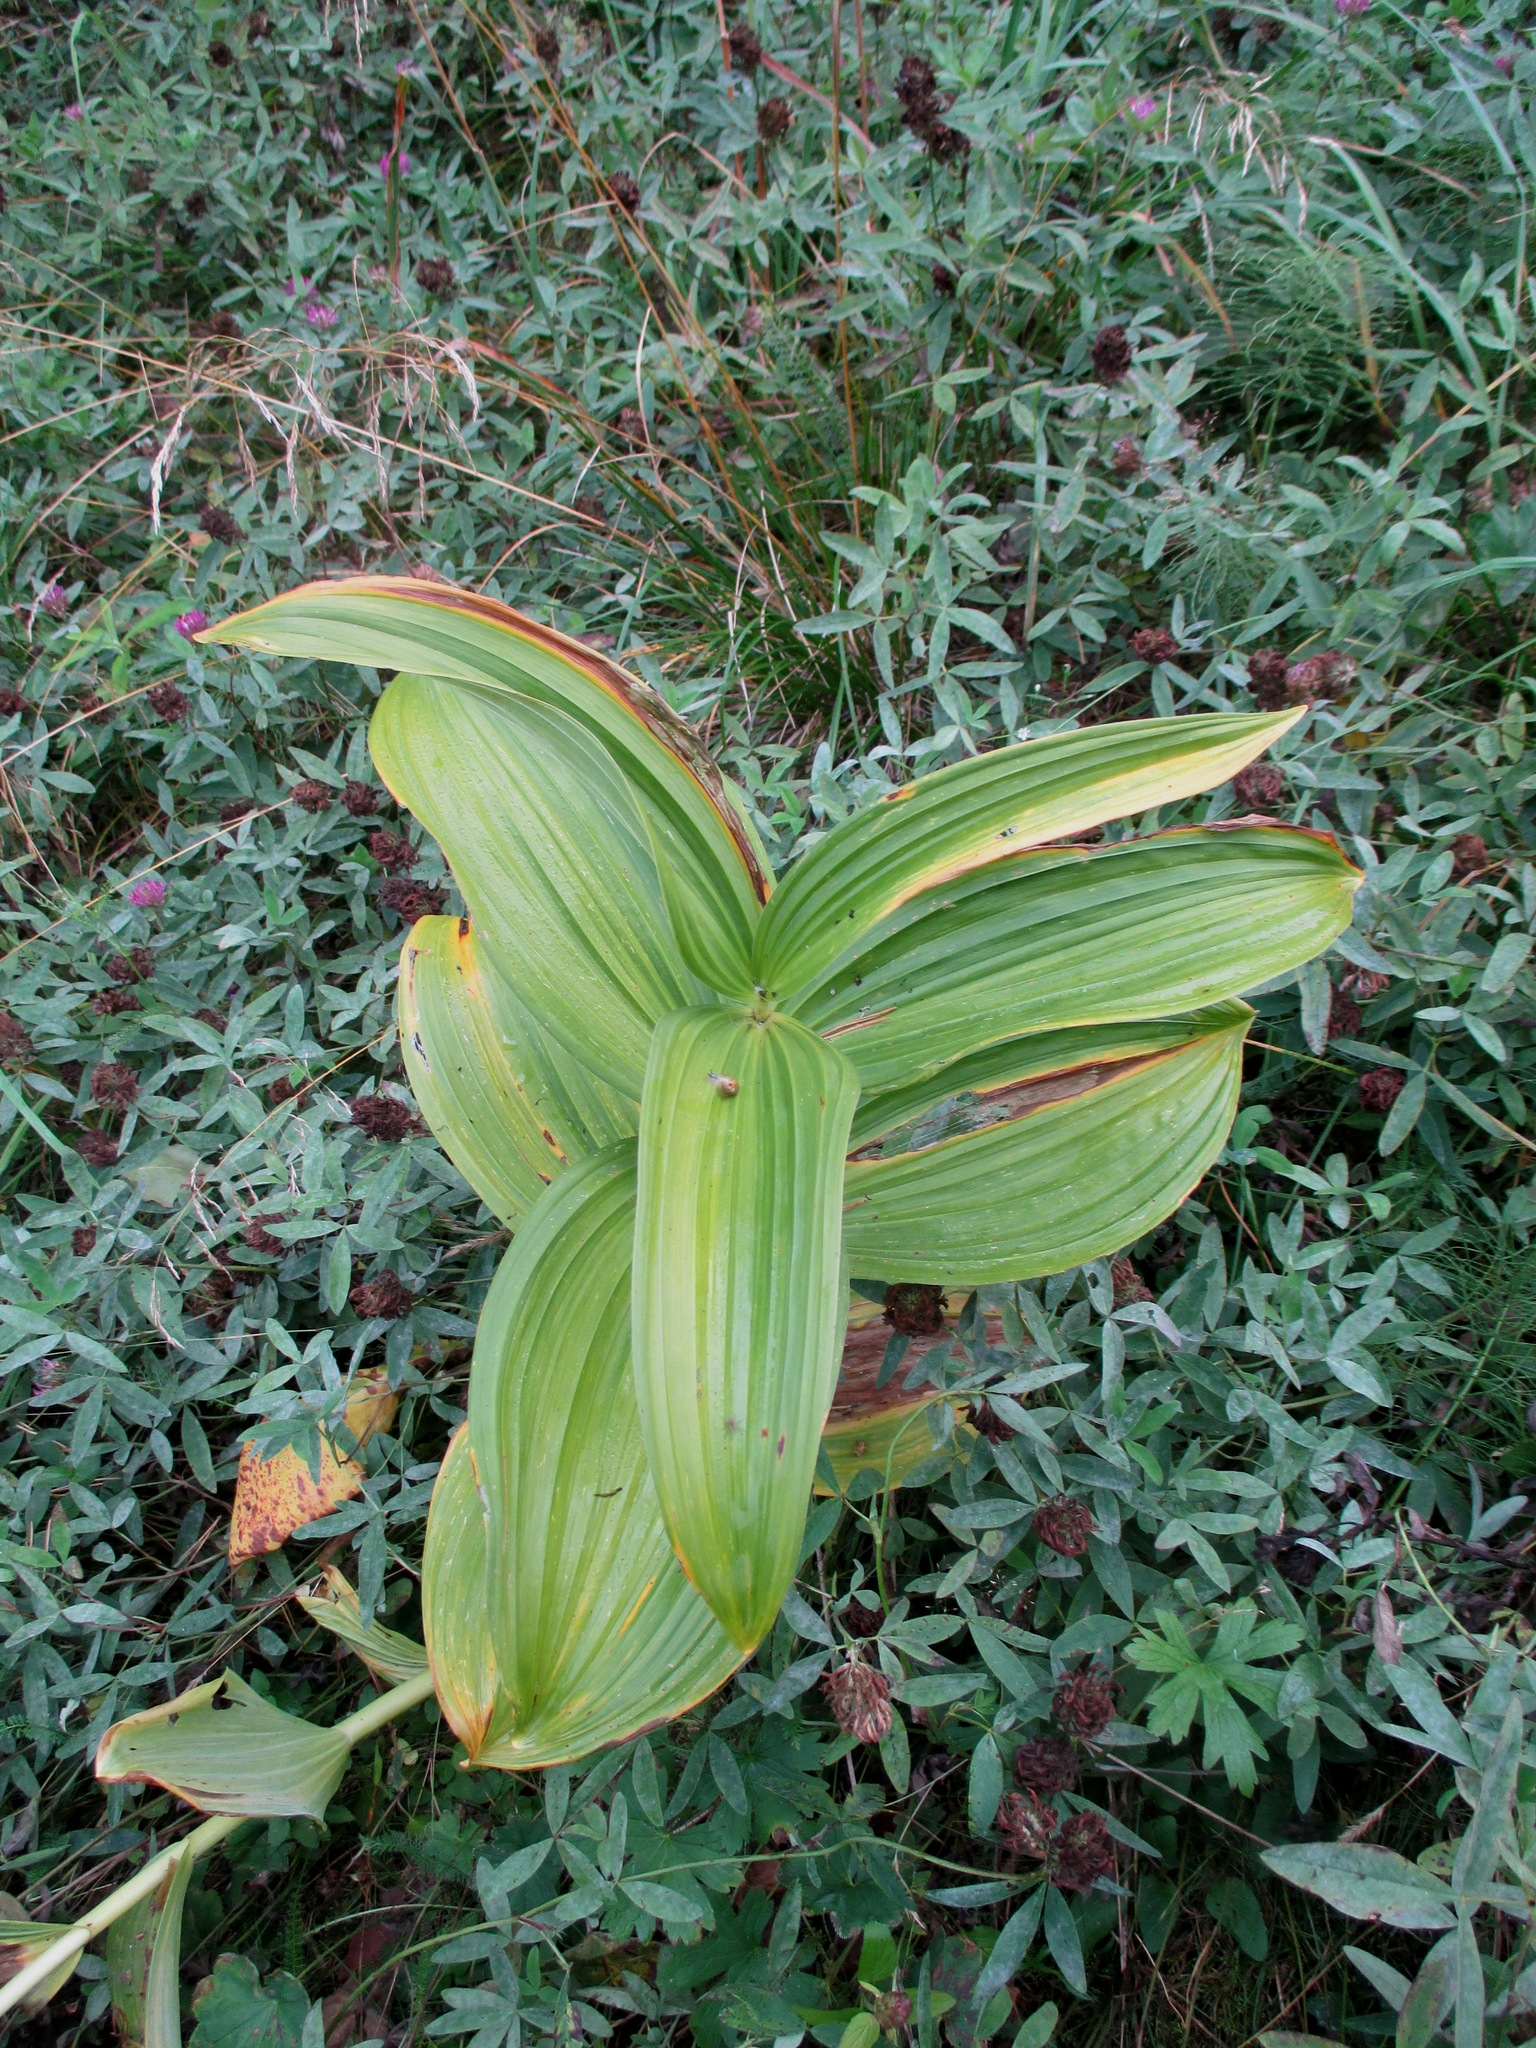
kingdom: Plantae
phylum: Tracheophyta
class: Liliopsida
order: Liliales
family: Melanthiaceae
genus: Veratrum
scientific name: Veratrum lobelianum
